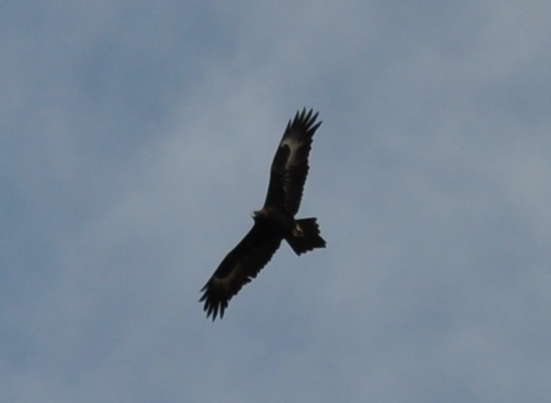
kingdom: Animalia
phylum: Chordata
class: Aves
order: Accipitriformes
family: Accipitridae
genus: Aquila
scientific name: Aquila audax
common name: Wedge-tailed eagle
